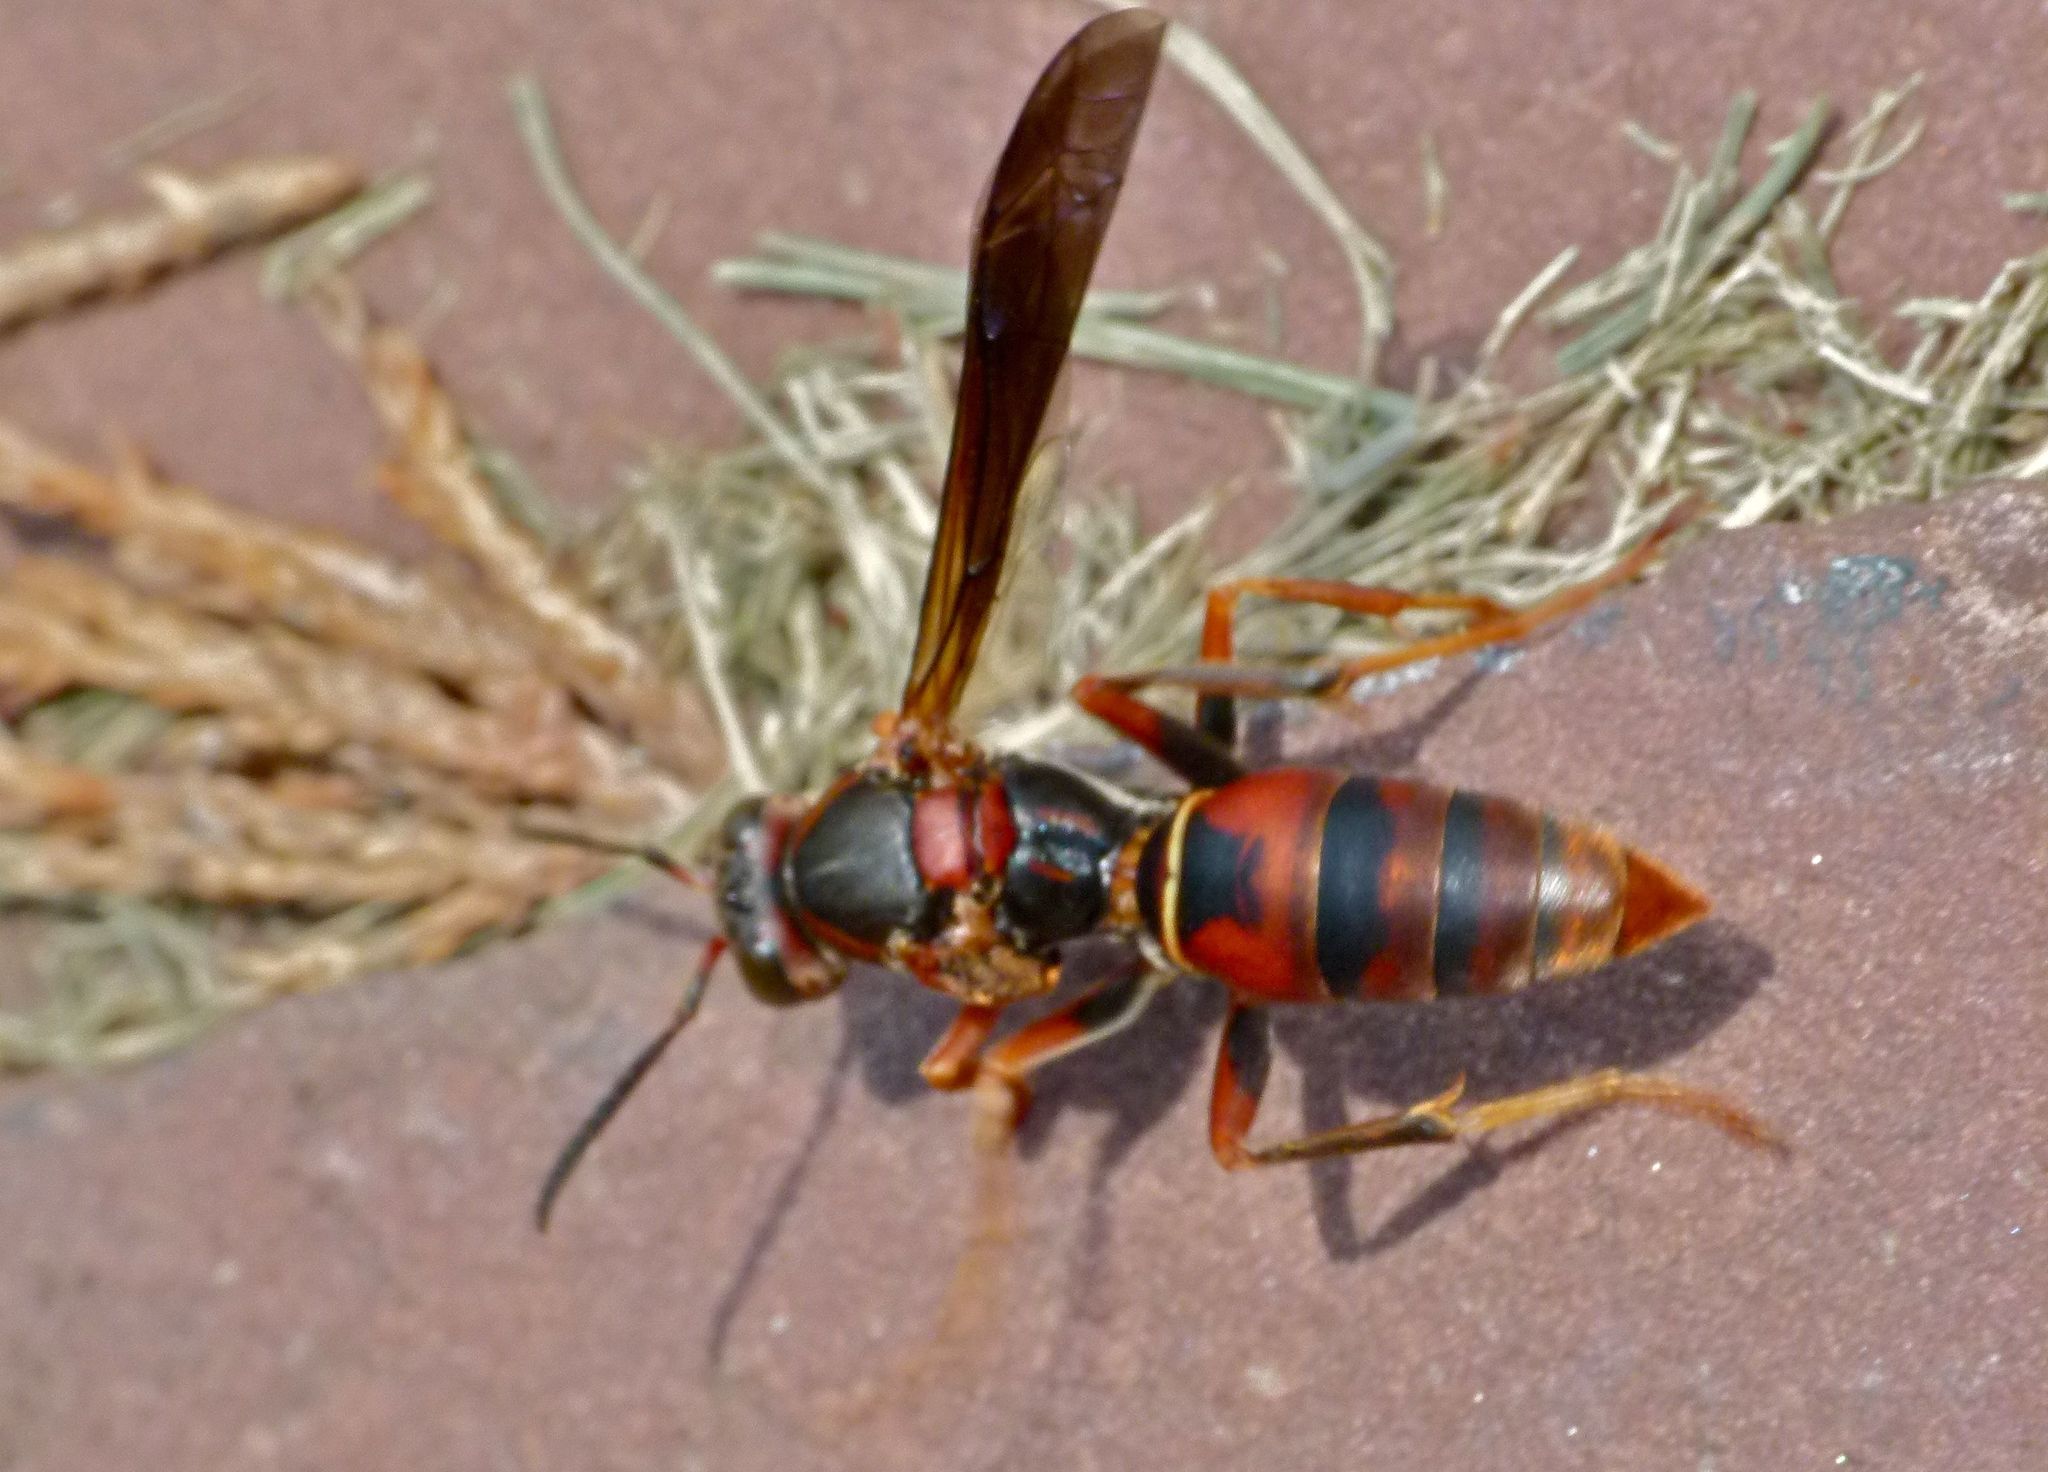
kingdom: Animalia
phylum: Arthropoda
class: Insecta
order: Hymenoptera
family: Eumenidae
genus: Polistes
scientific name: Polistes fuscatus
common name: Dark paper wasp
